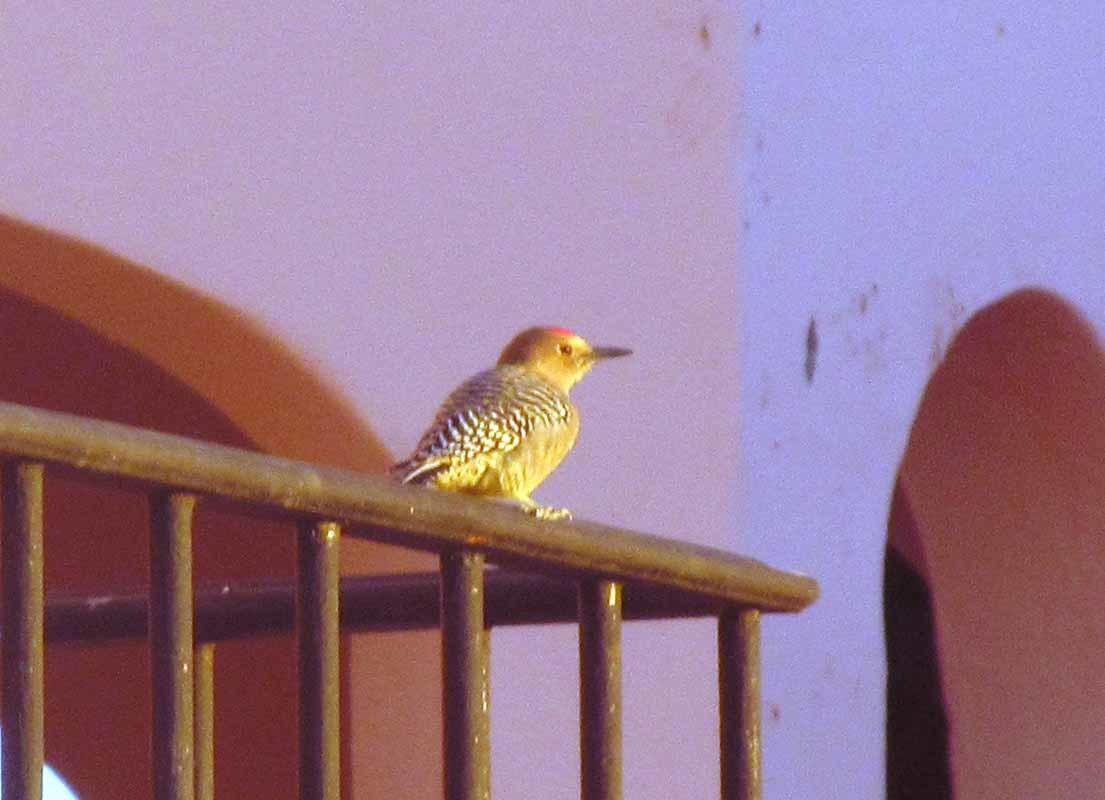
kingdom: Animalia
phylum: Chordata
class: Aves
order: Piciformes
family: Picidae
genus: Melanerpes
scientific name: Melanerpes uropygialis
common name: Gila woodpecker
